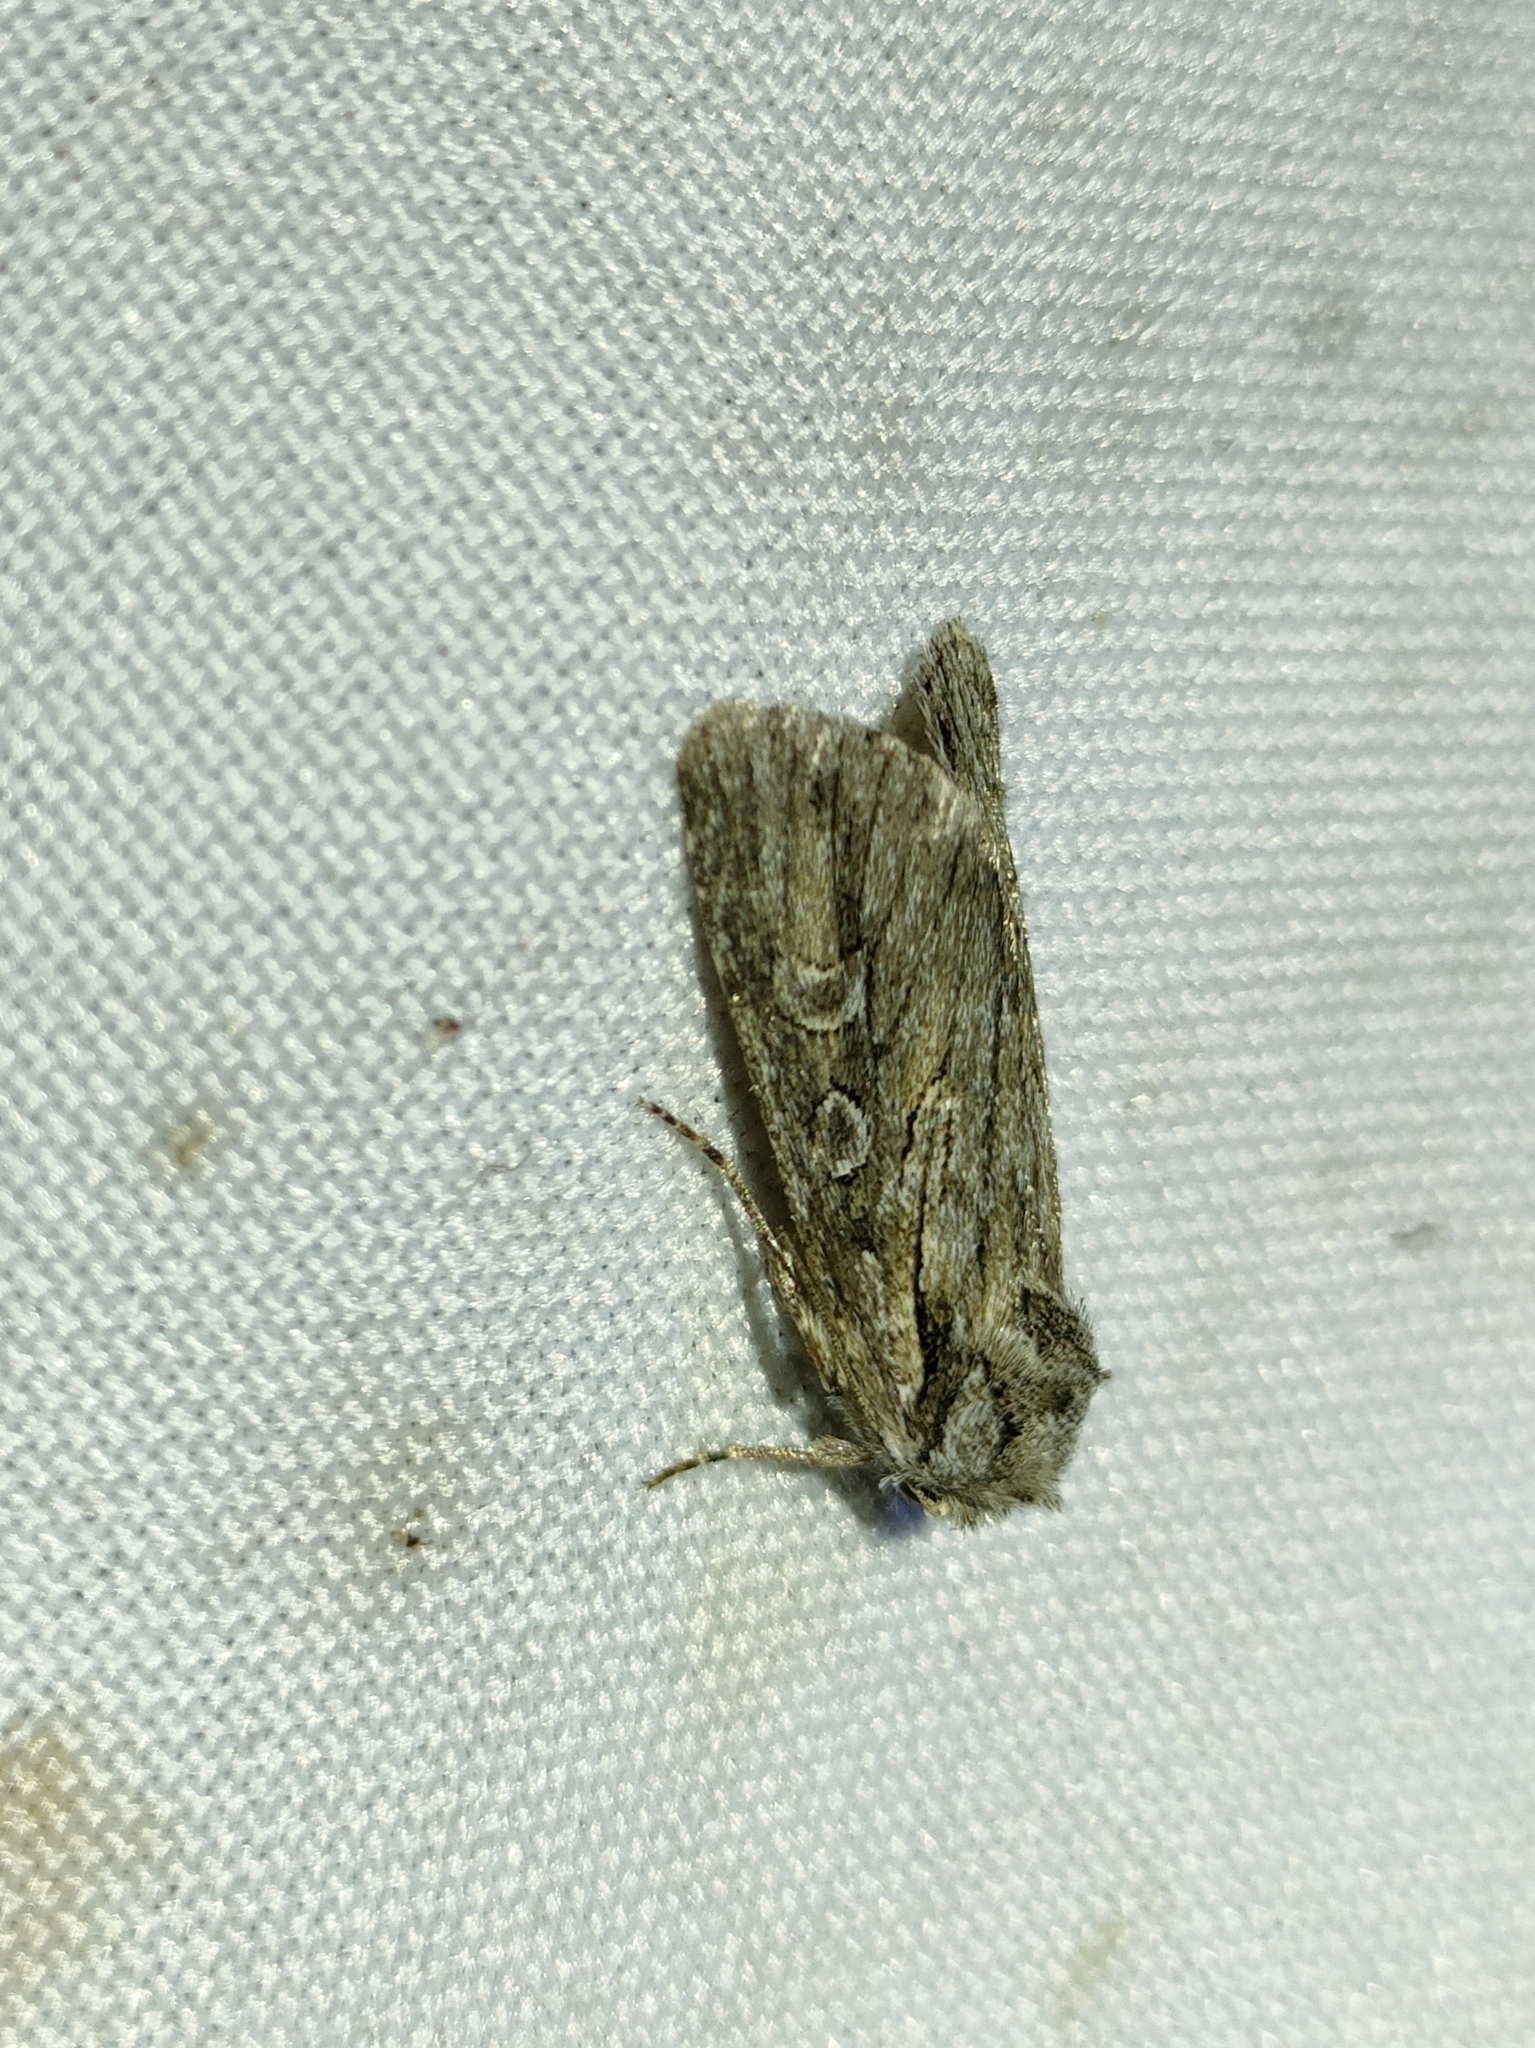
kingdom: Animalia
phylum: Arthropoda
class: Insecta
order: Lepidoptera
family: Noctuidae
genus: Dichagyris
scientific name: Dichagyris fidelis
